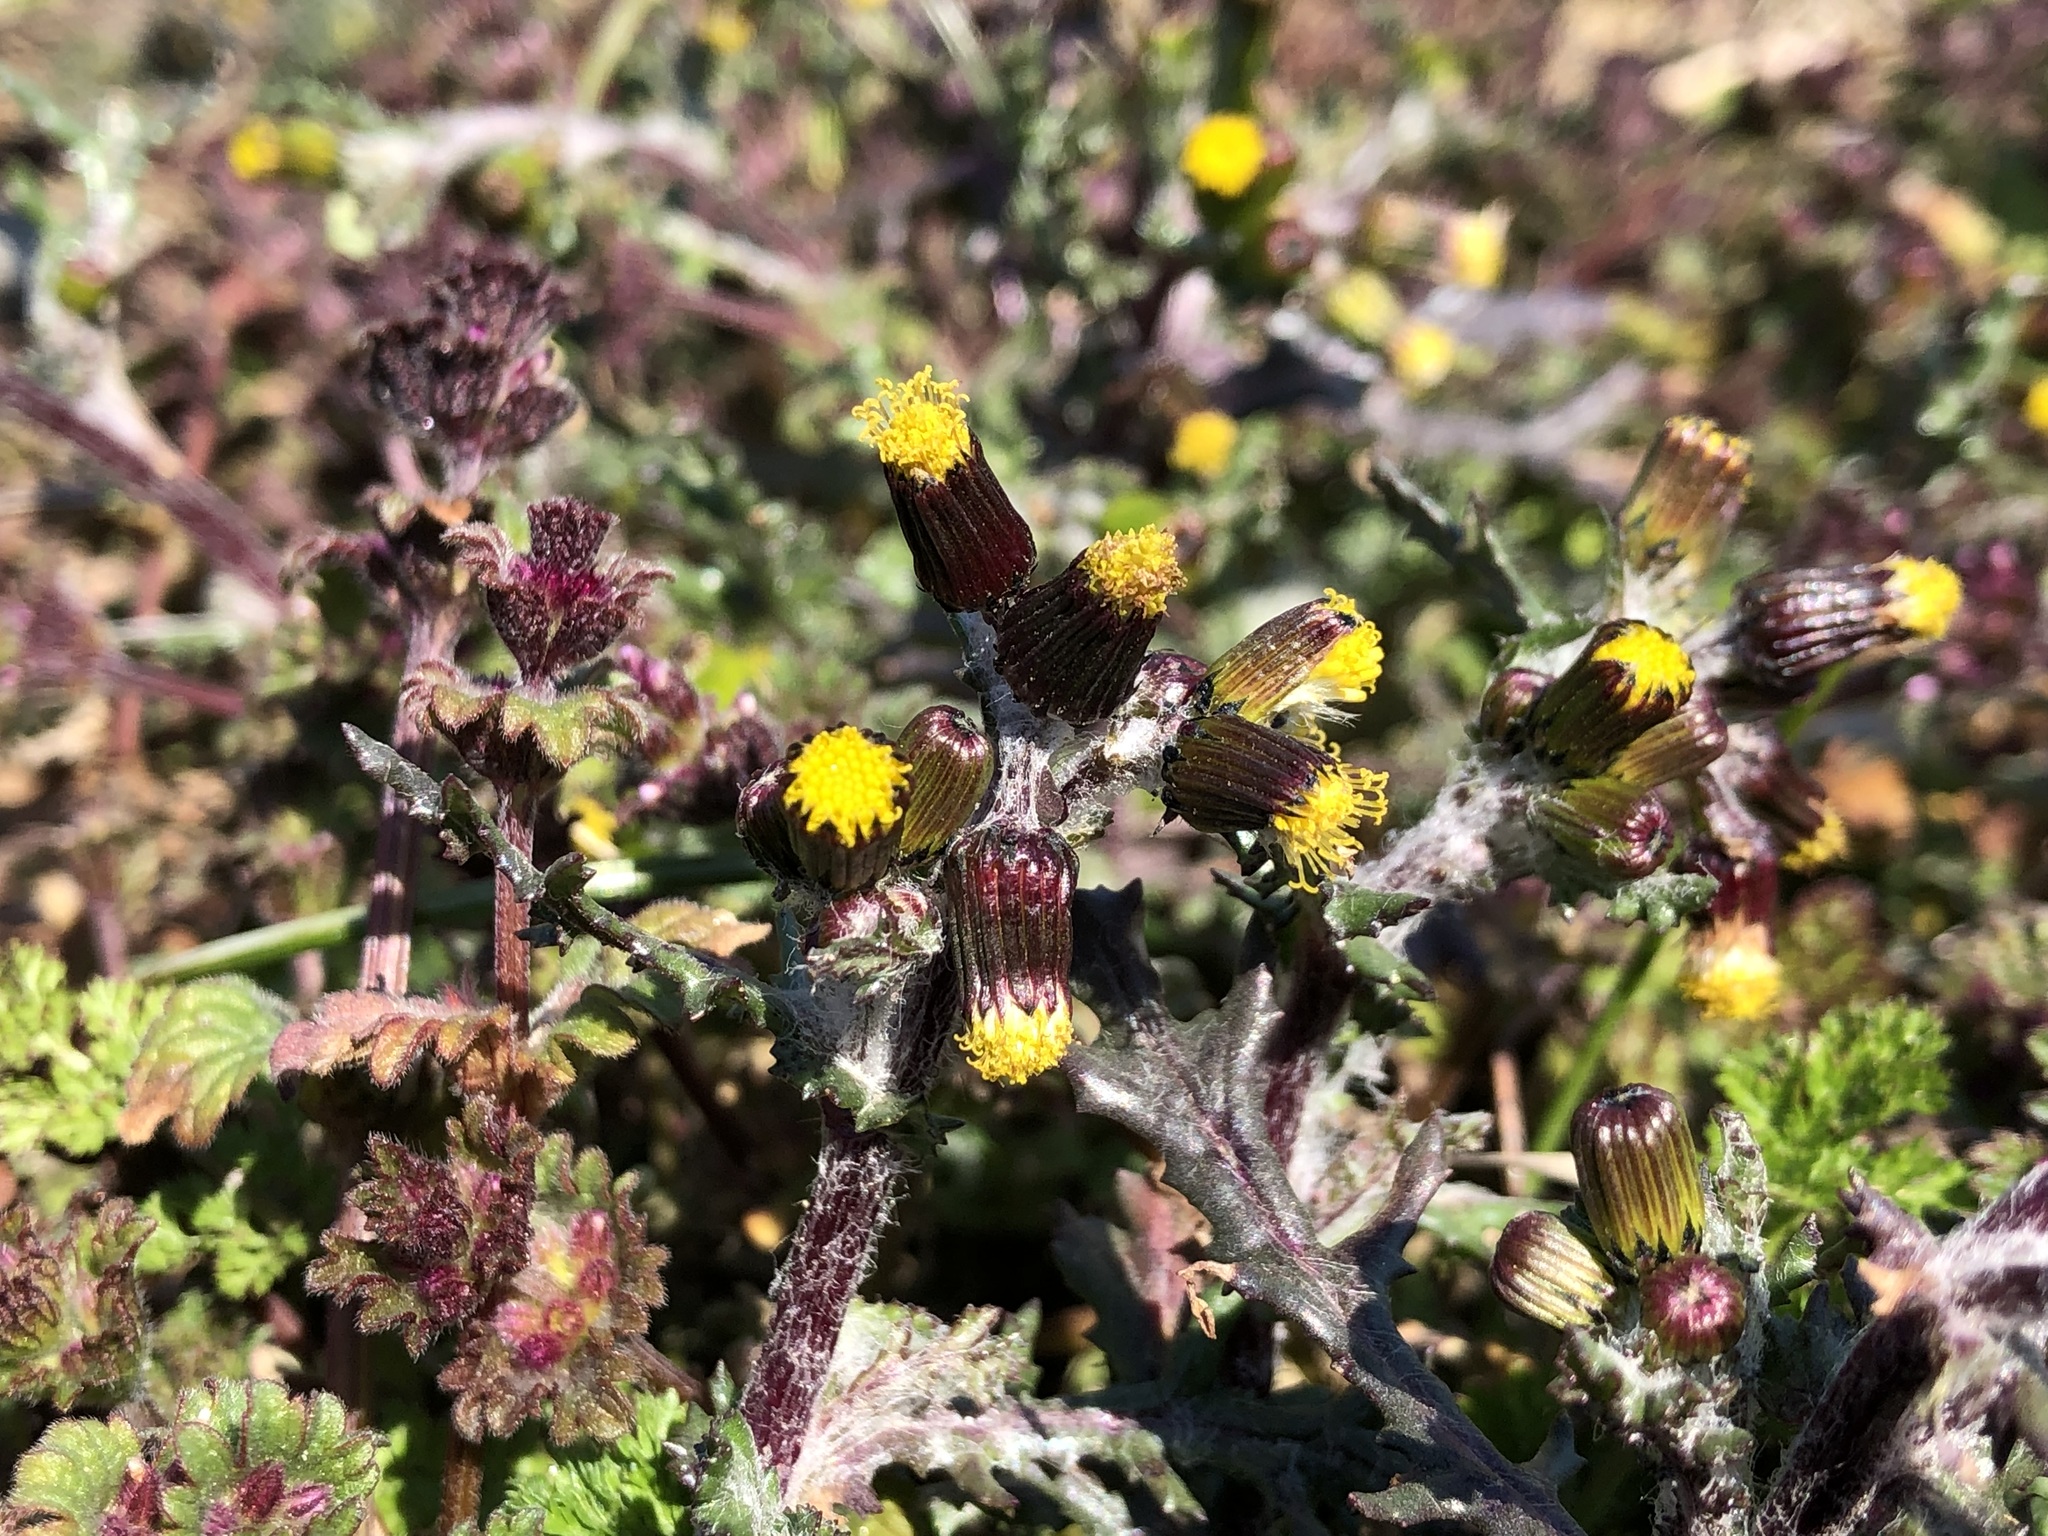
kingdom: Plantae
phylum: Tracheophyta
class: Magnoliopsida
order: Asterales
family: Asteraceae
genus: Senecio
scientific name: Senecio vulgaris
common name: Old-man-in-the-spring
